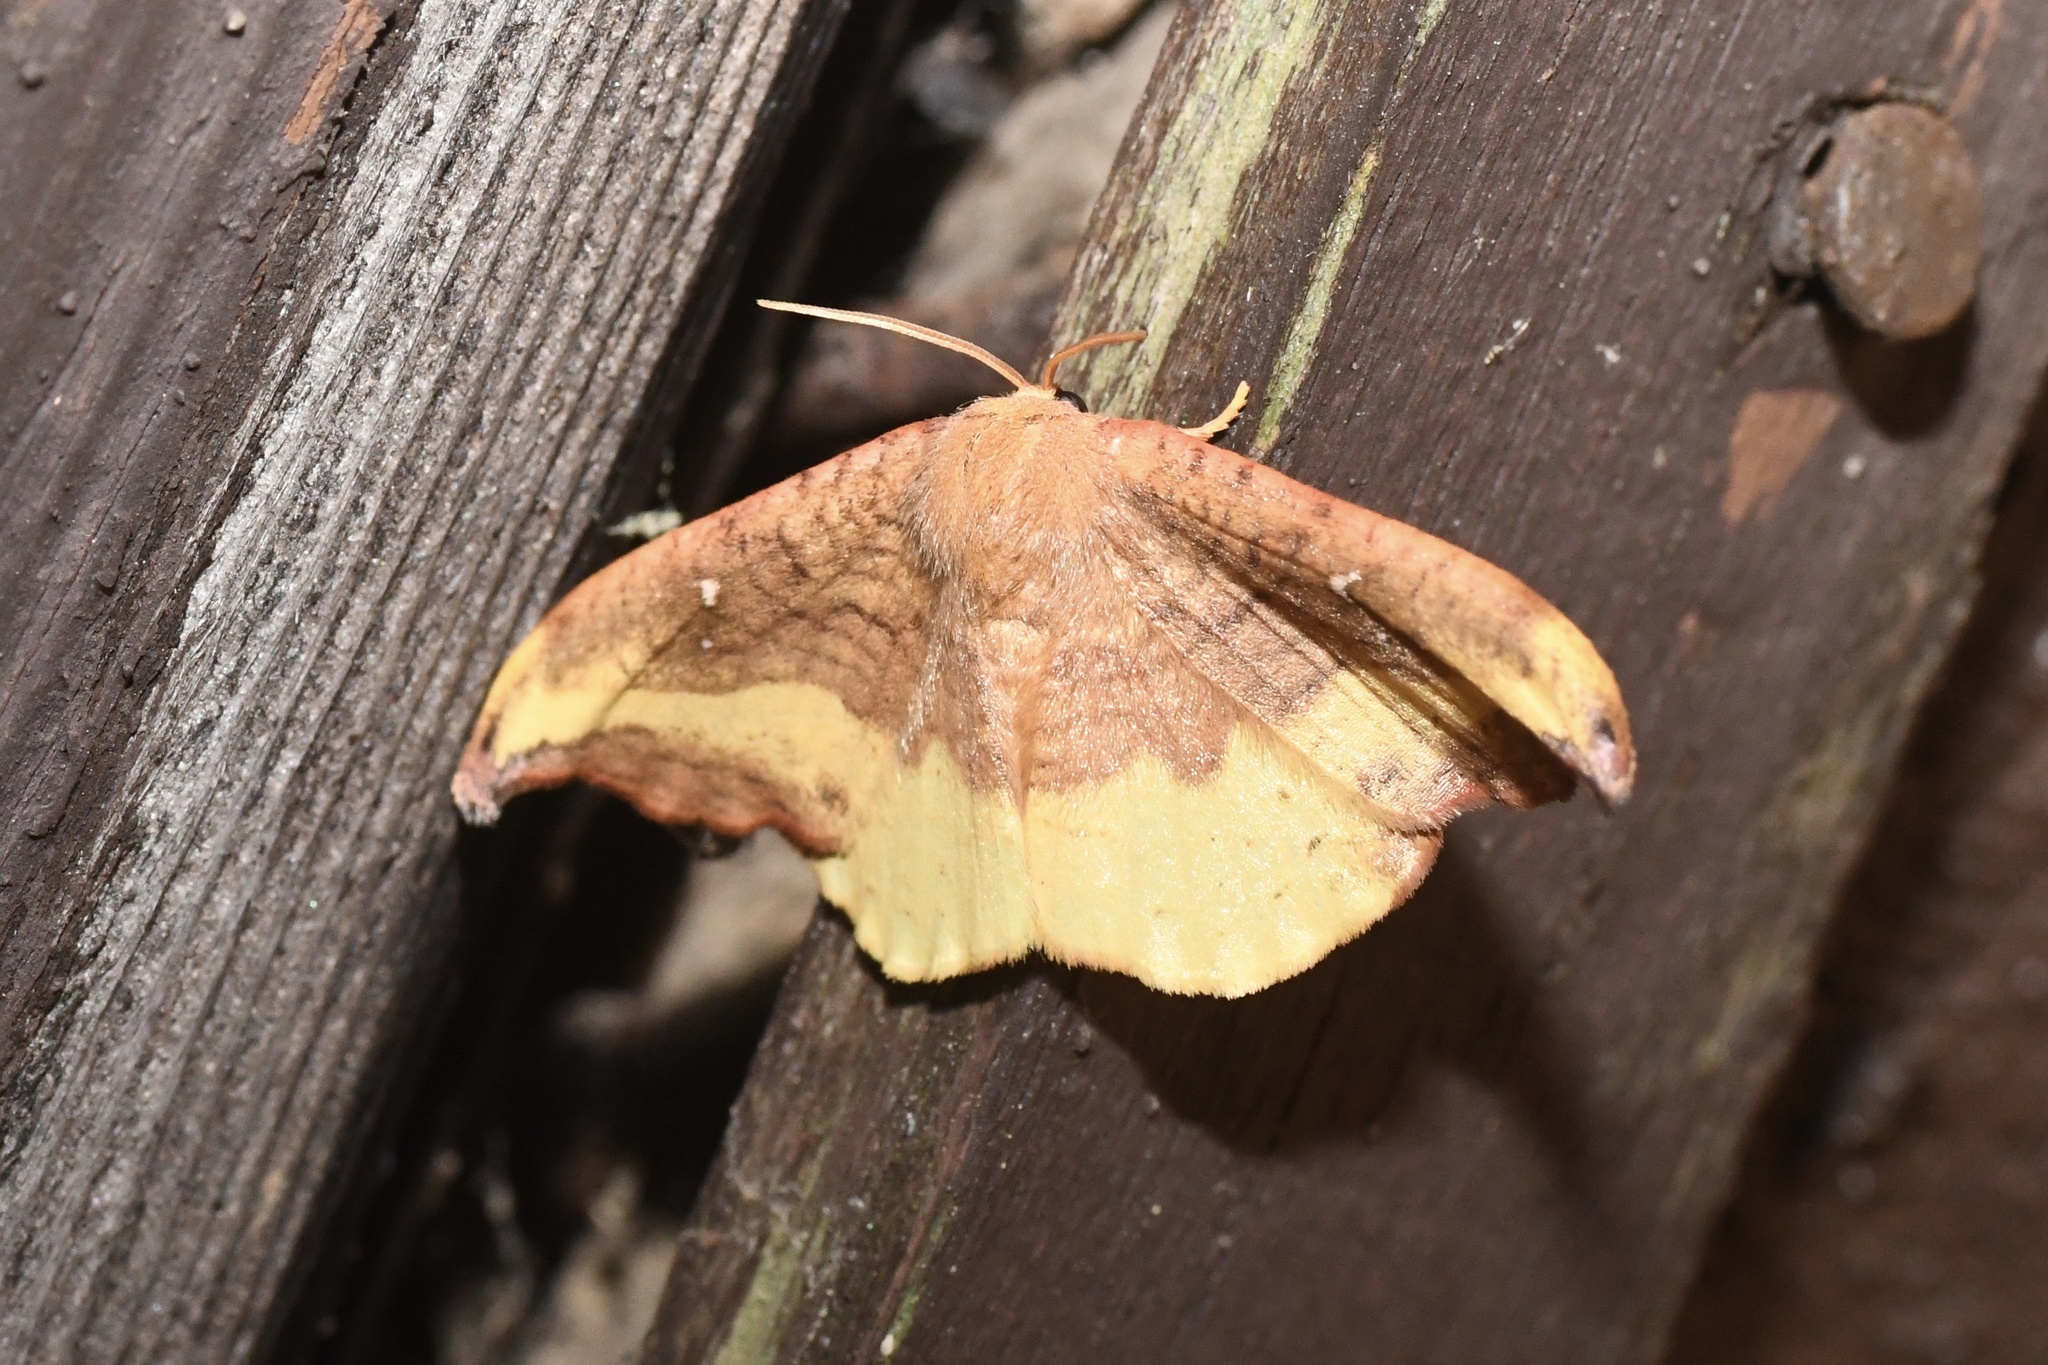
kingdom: Animalia
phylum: Arthropoda
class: Insecta
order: Lepidoptera
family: Drepanidae
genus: Oreta
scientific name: Oreta rosea
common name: Rose hooktip
